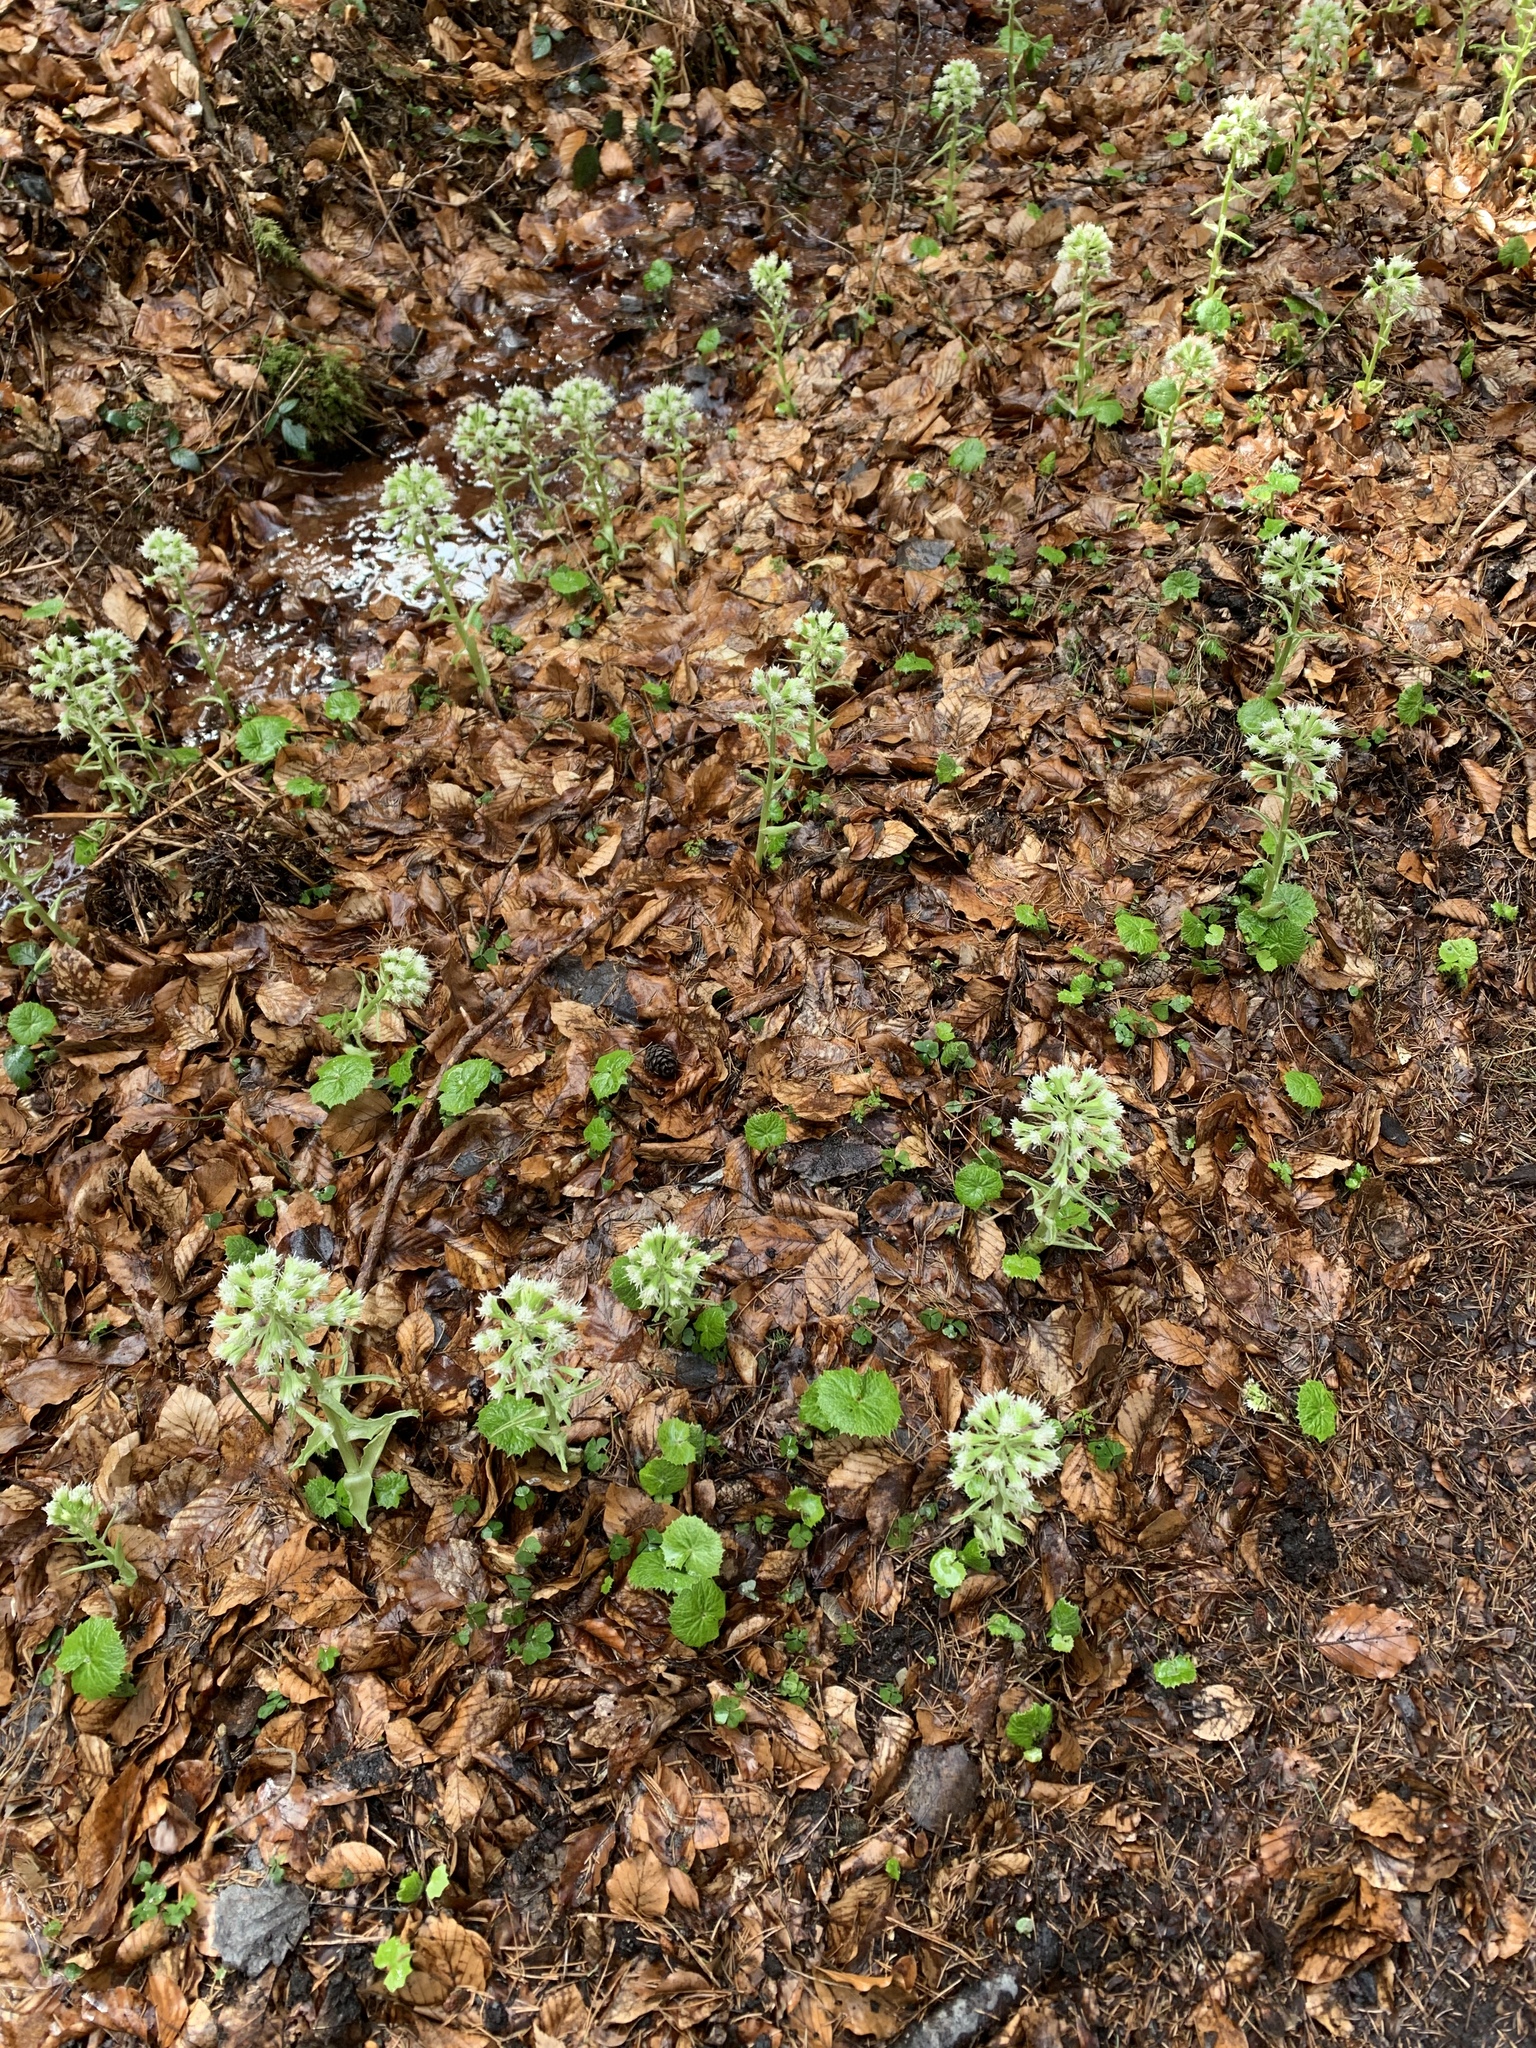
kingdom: Plantae
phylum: Tracheophyta
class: Magnoliopsida
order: Asterales
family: Asteraceae
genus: Petasites
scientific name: Petasites albus
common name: White butterbur
